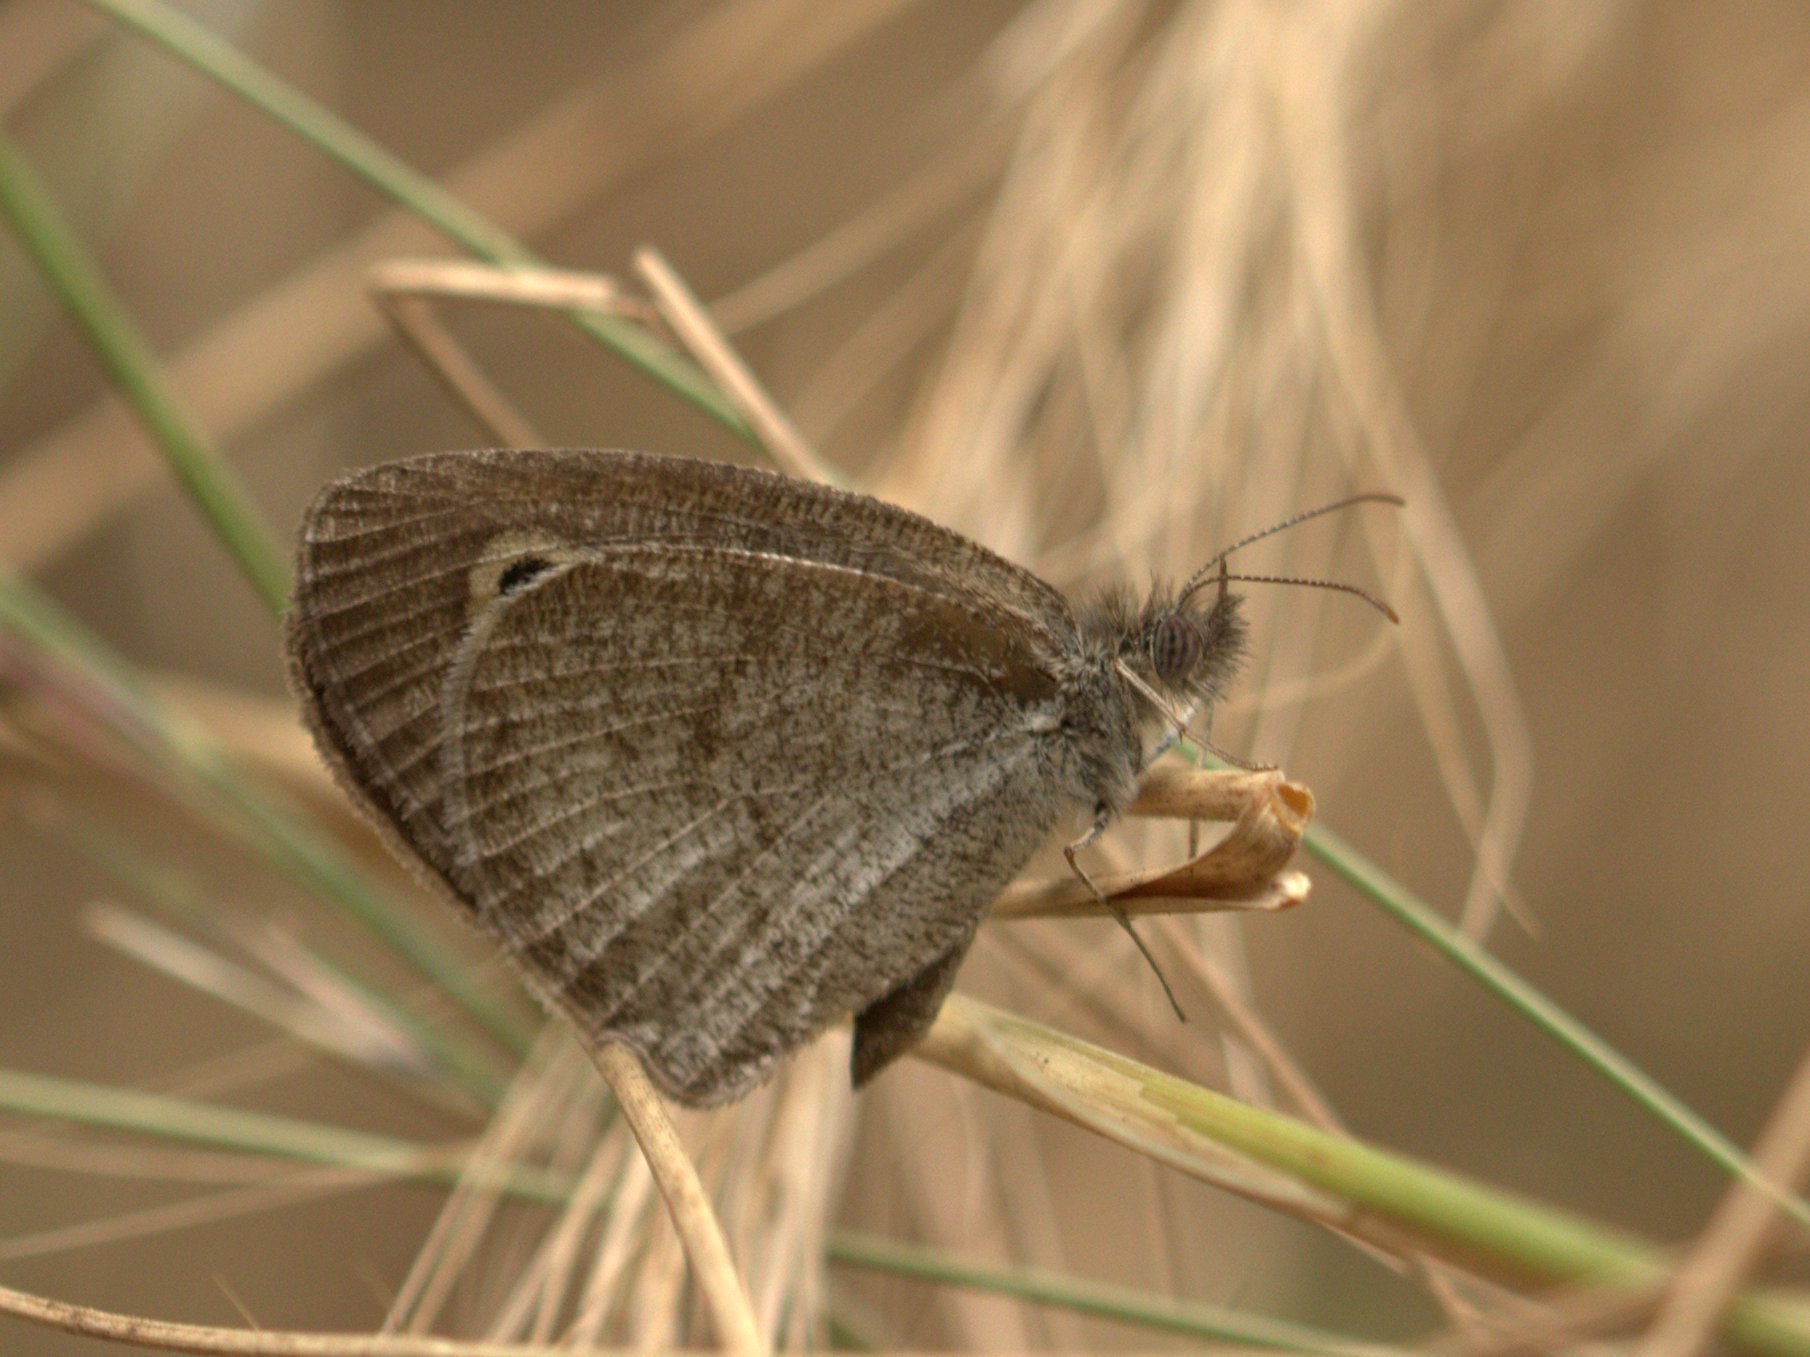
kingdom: Animalia
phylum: Arthropoda
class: Insecta
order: Lepidoptera
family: Nymphalidae
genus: Ypthima
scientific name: Ypthima huebneri
